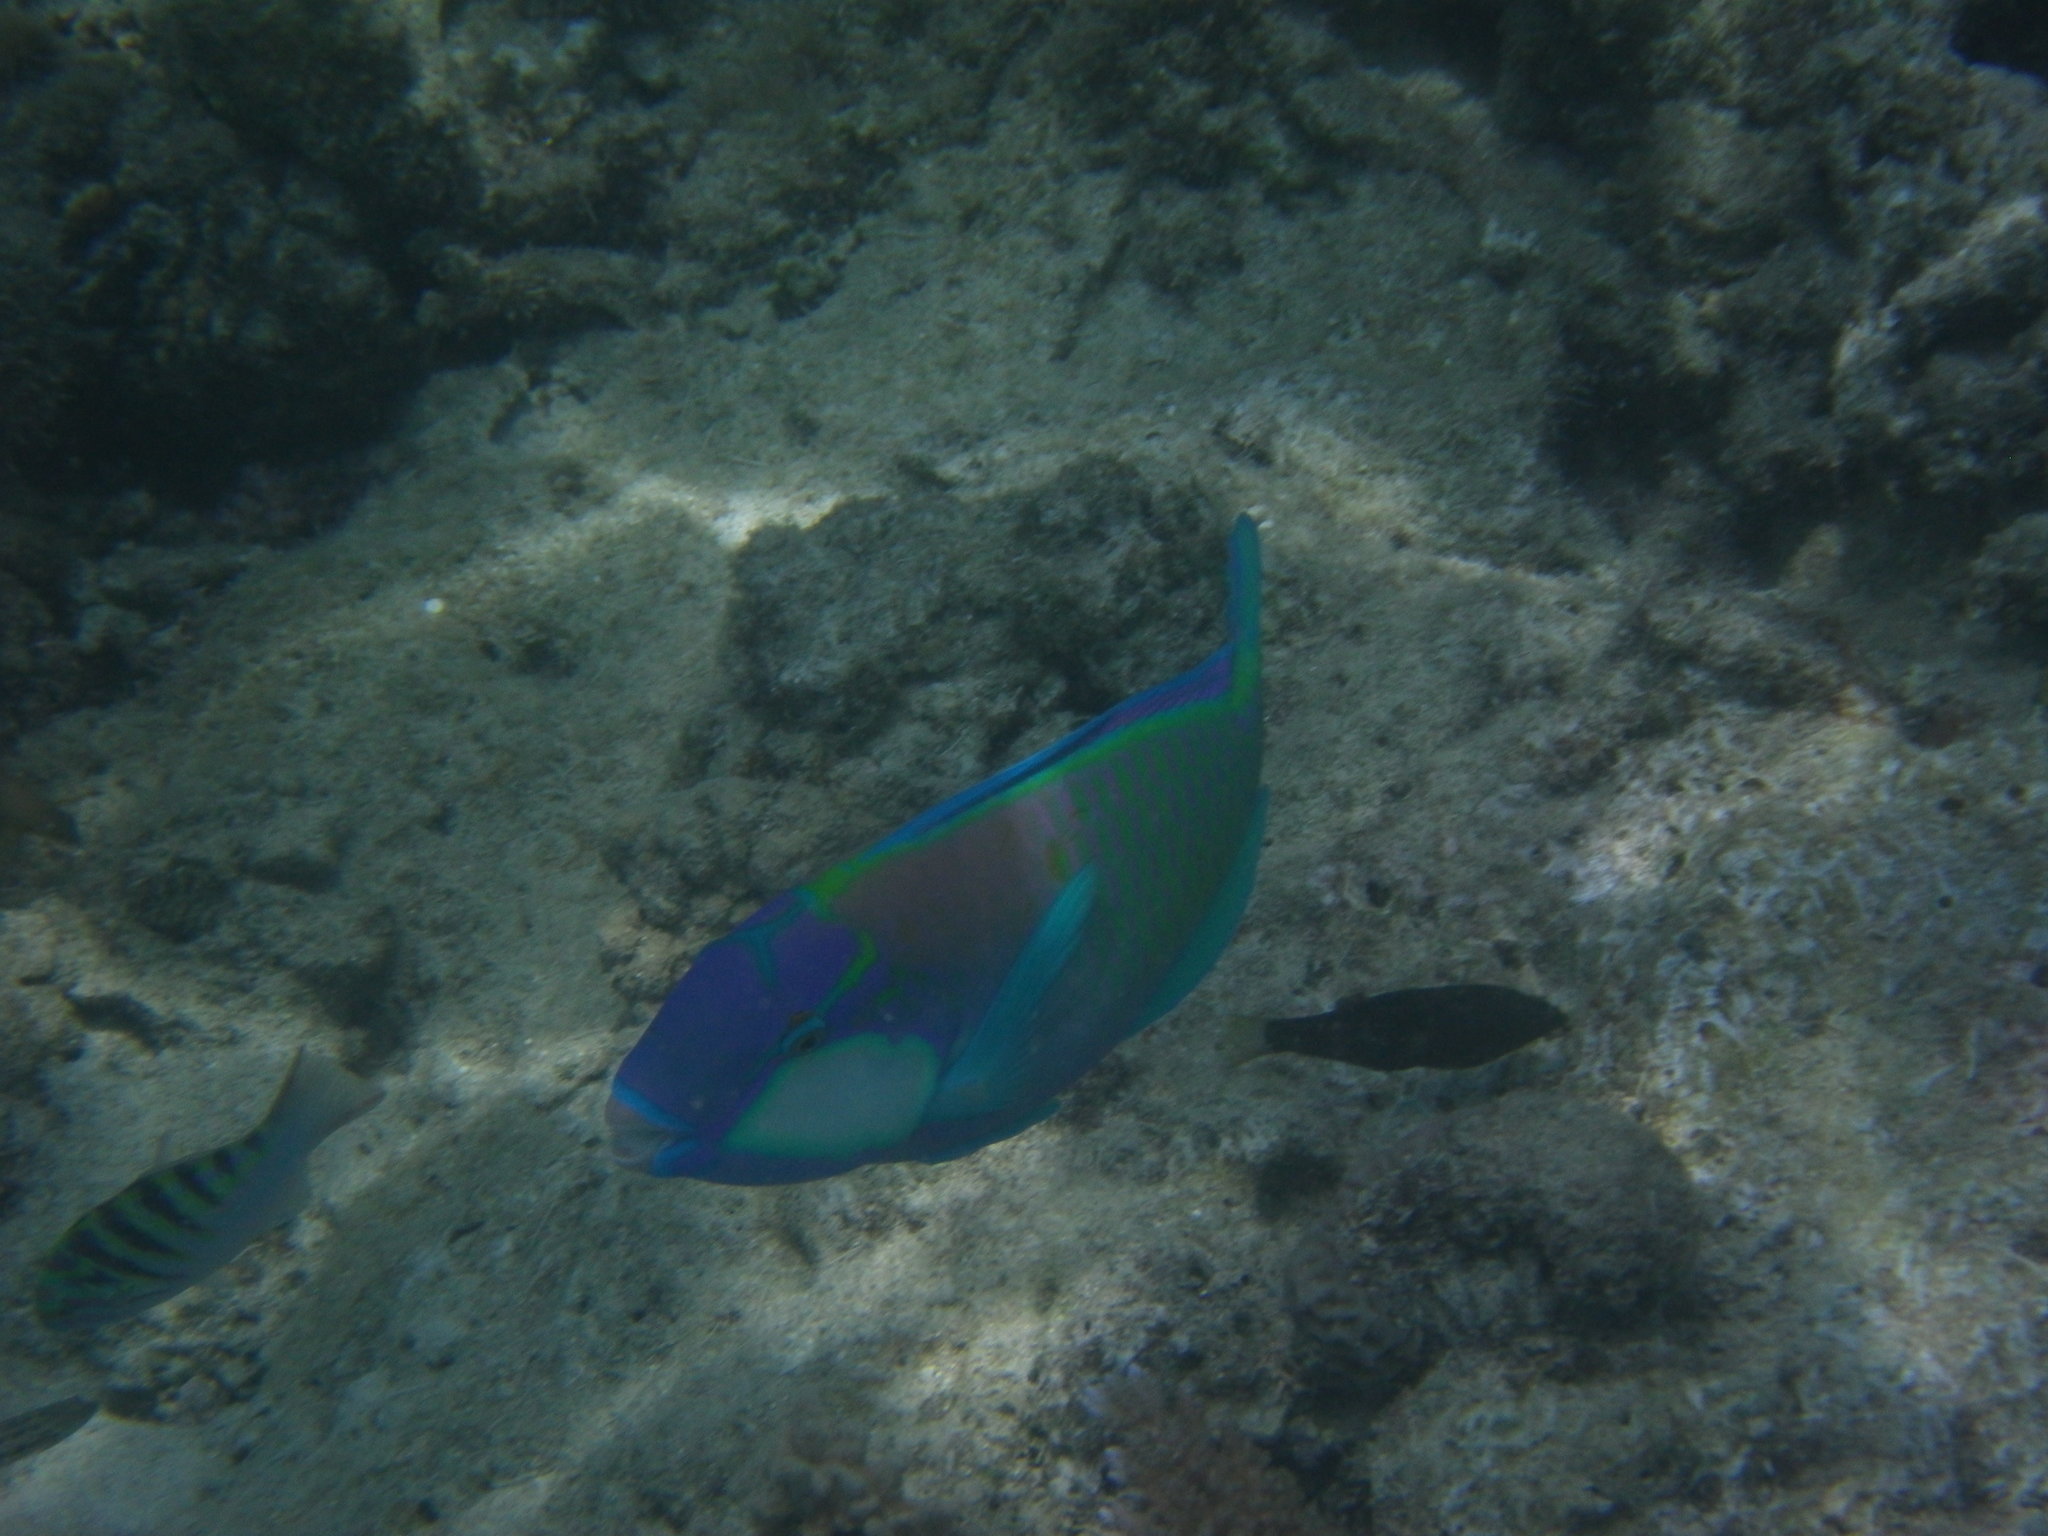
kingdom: Animalia
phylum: Chordata
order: Perciformes
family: Scaridae
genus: Chlorurus
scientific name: Chlorurus bleekeri
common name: Bleeker's parrotfish
